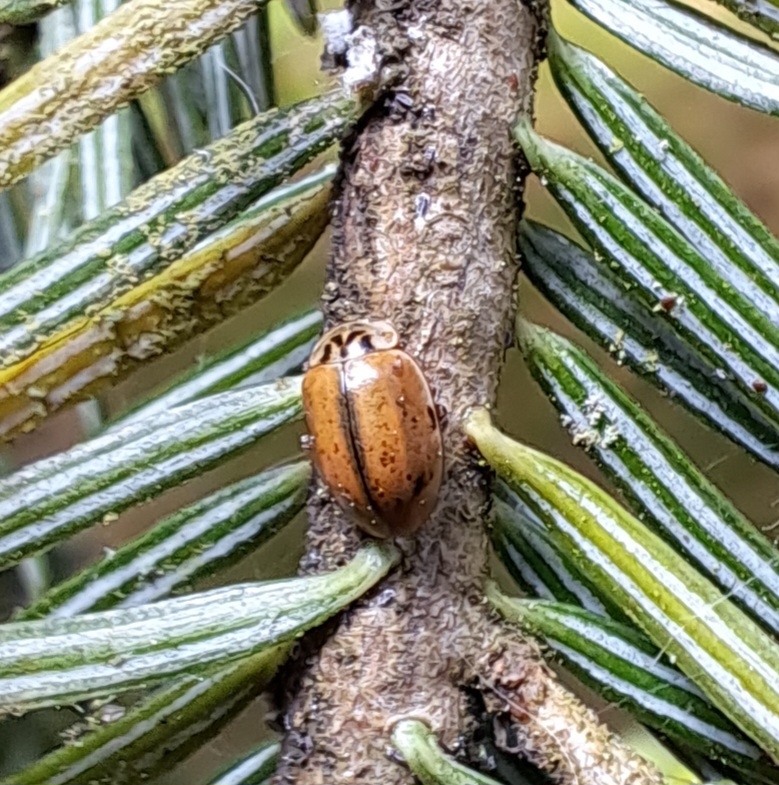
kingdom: Animalia
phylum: Arthropoda
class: Insecta
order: Coleoptera
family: Coccinellidae
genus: Aphidecta
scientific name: Aphidecta obliterata
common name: Larch ladybird
